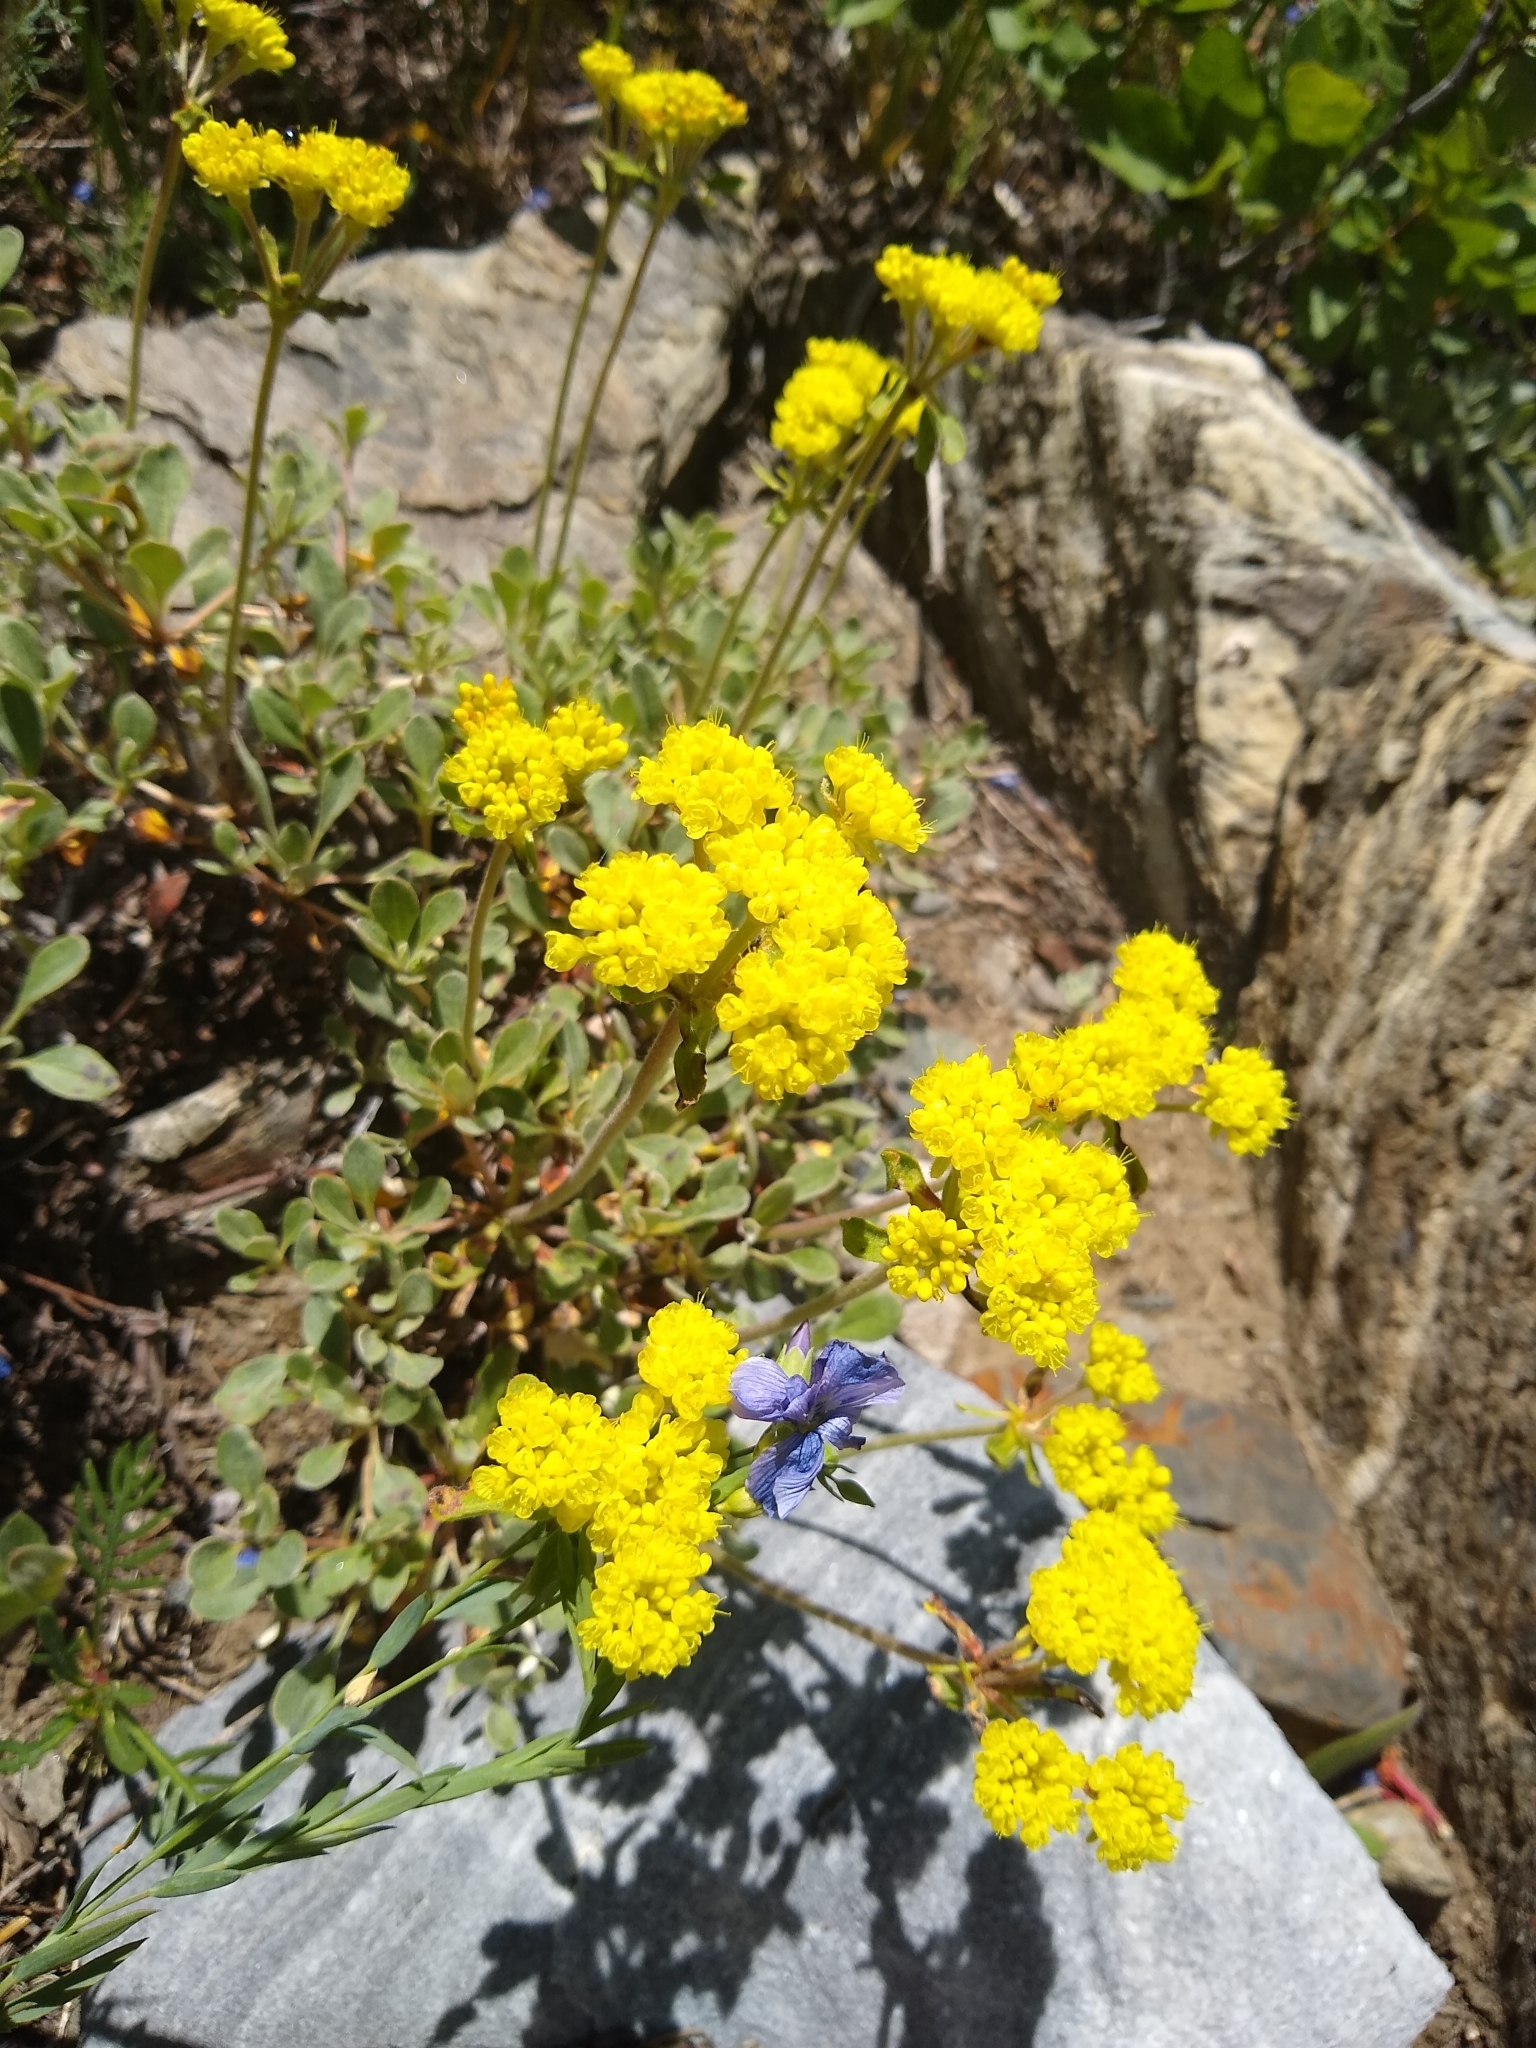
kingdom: Plantae
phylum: Tracheophyta
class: Magnoliopsida
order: Caryophyllales
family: Polygonaceae
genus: Eriogonum
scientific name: Eriogonum umbellatum
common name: Sulfur-buckwheat
